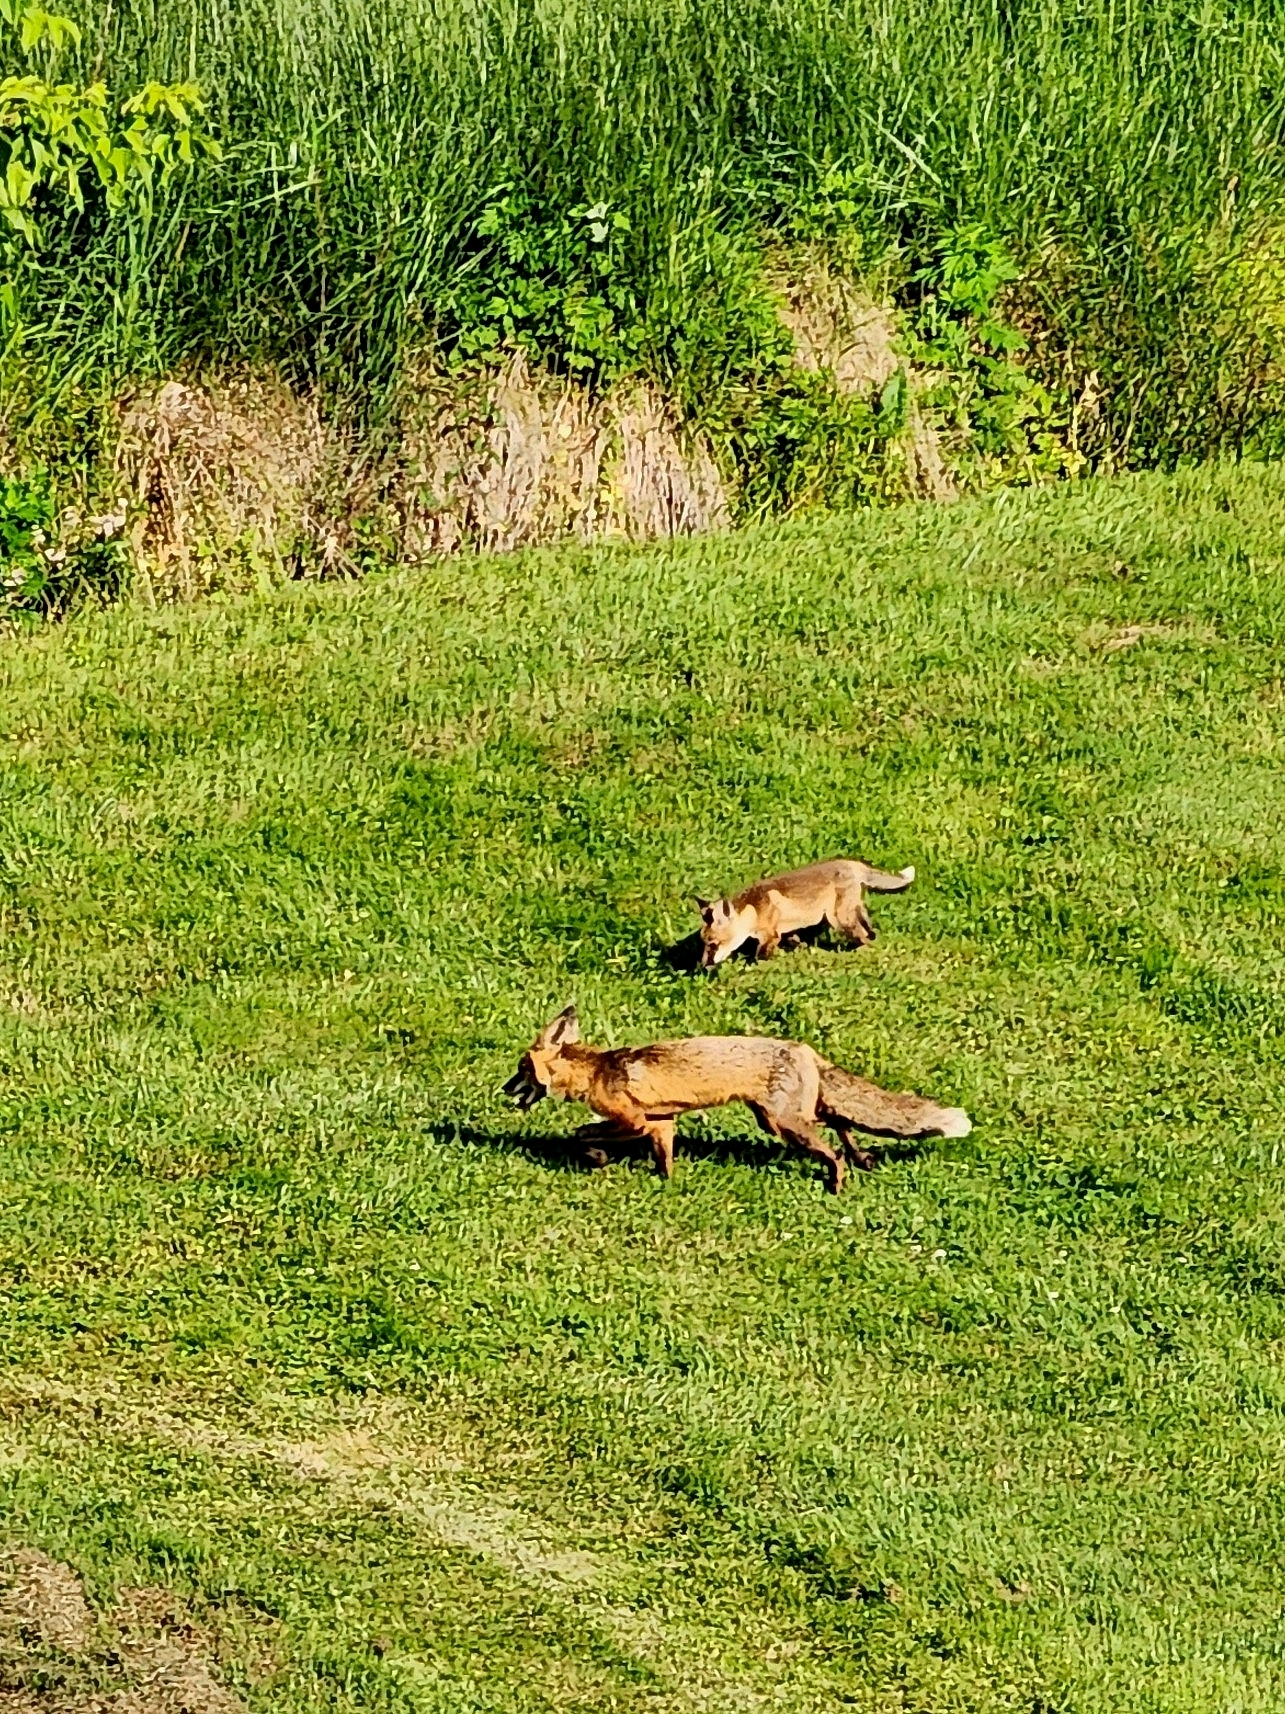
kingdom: Animalia
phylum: Chordata
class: Mammalia
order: Carnivora
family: Canidae
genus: Vulpes
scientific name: Vulpes vulpes
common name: Red fox
